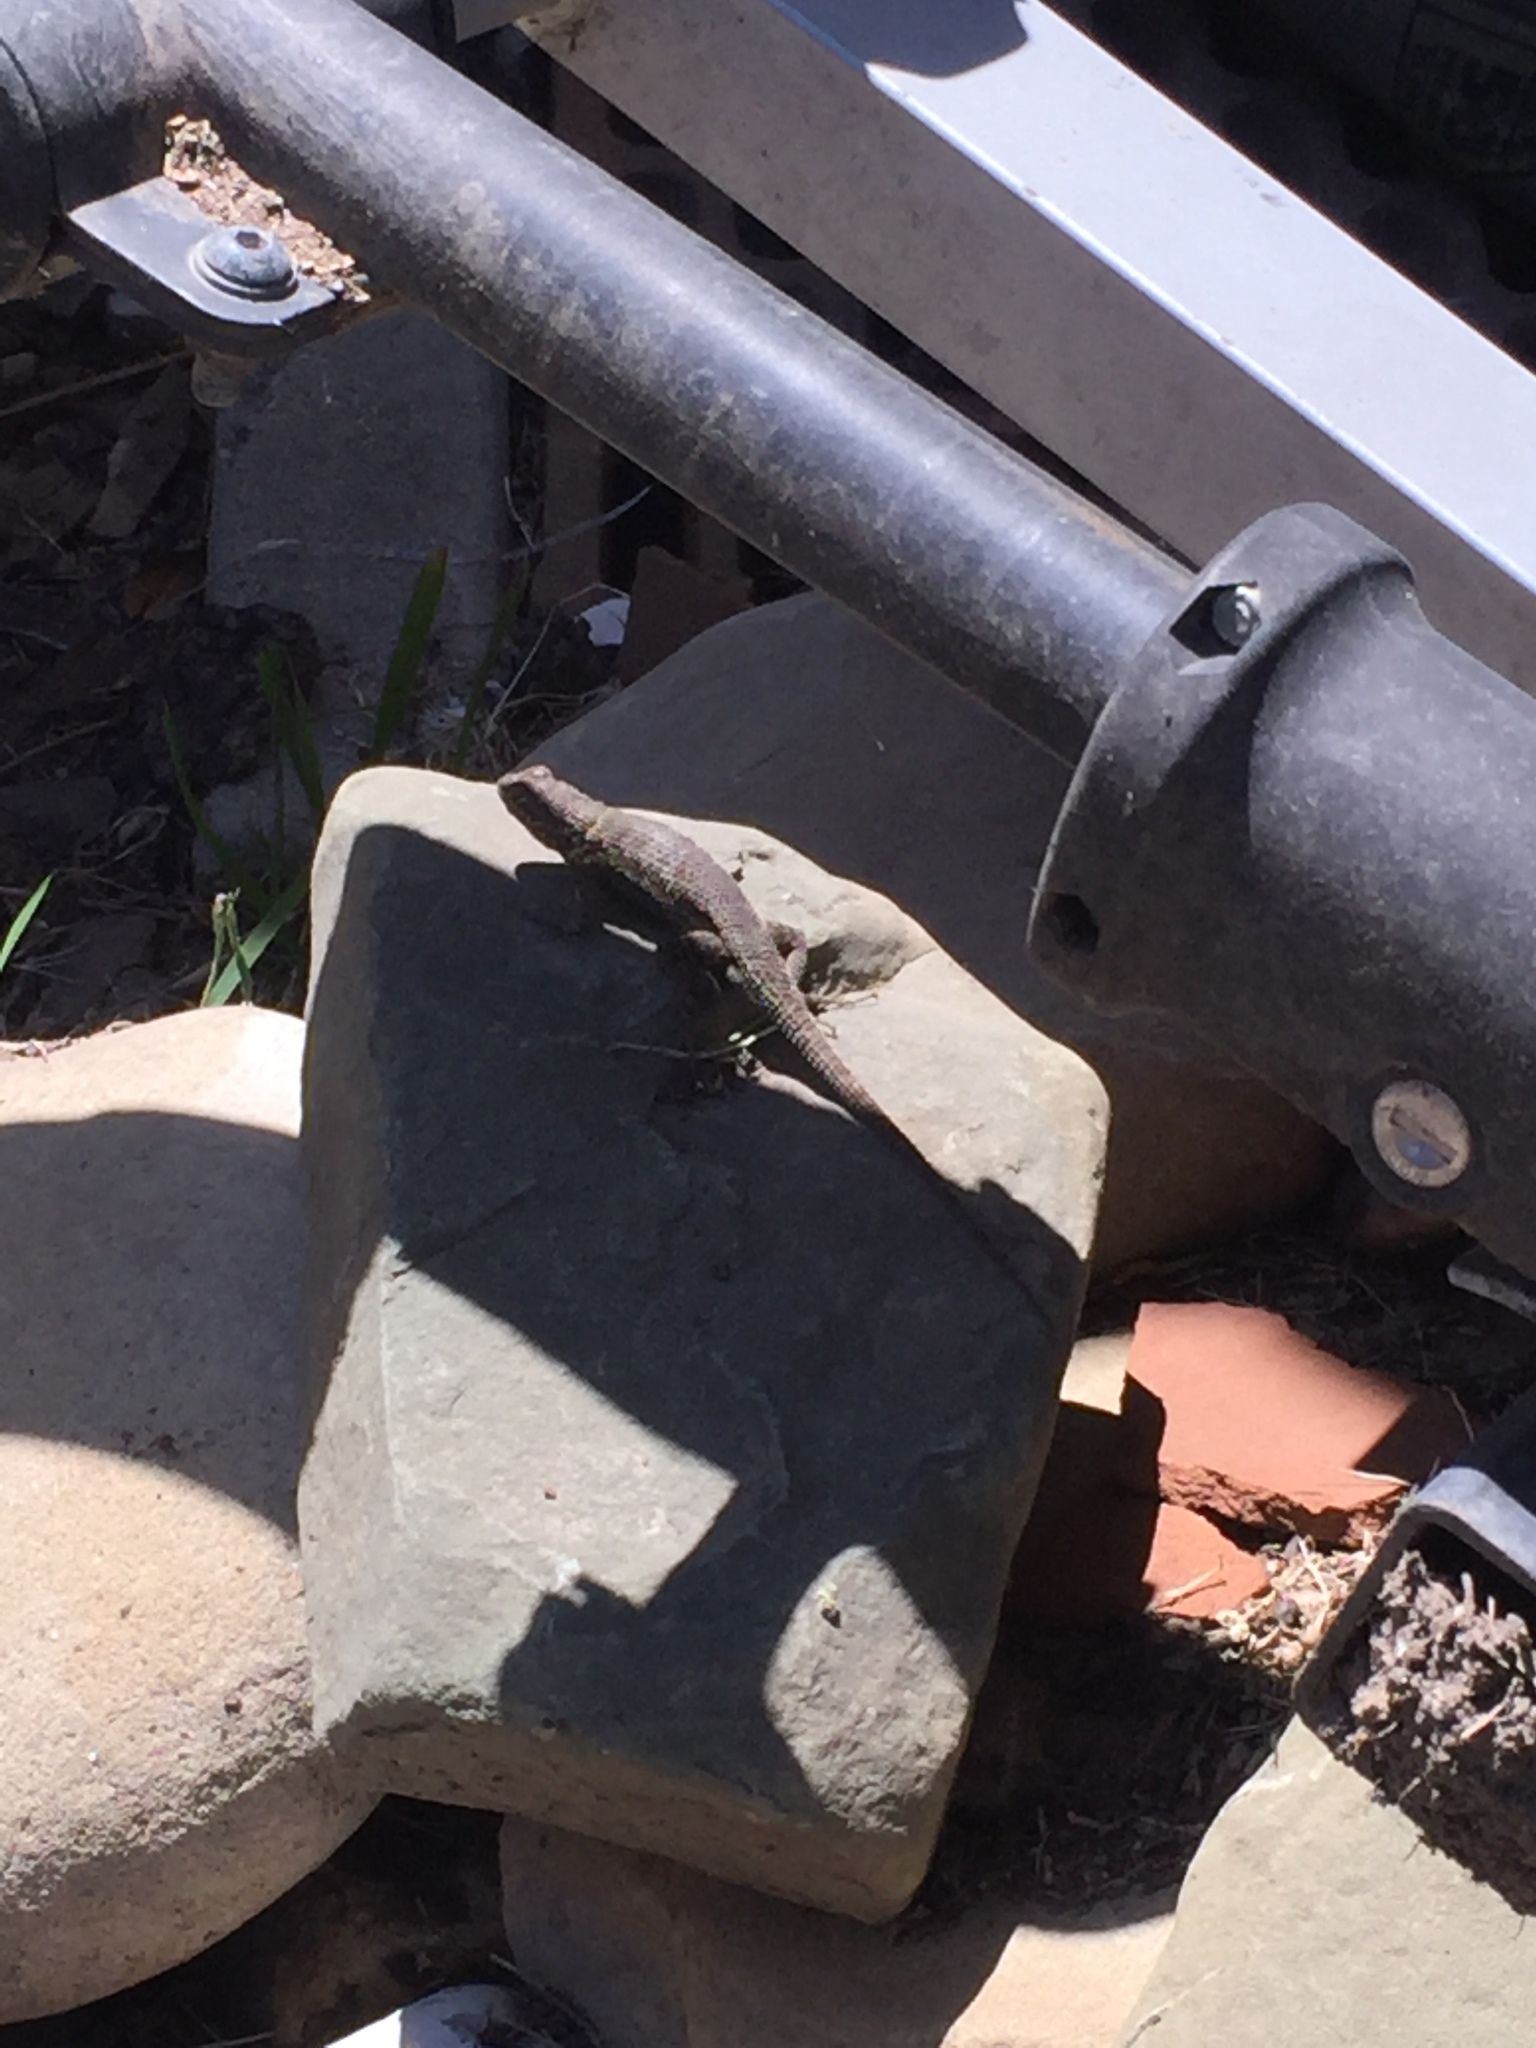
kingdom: Animalia
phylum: Chordata
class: Squamata
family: Phrynosomatidae
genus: Sceloporus
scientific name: Sceloporus occidentalis
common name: Western fence lizard
